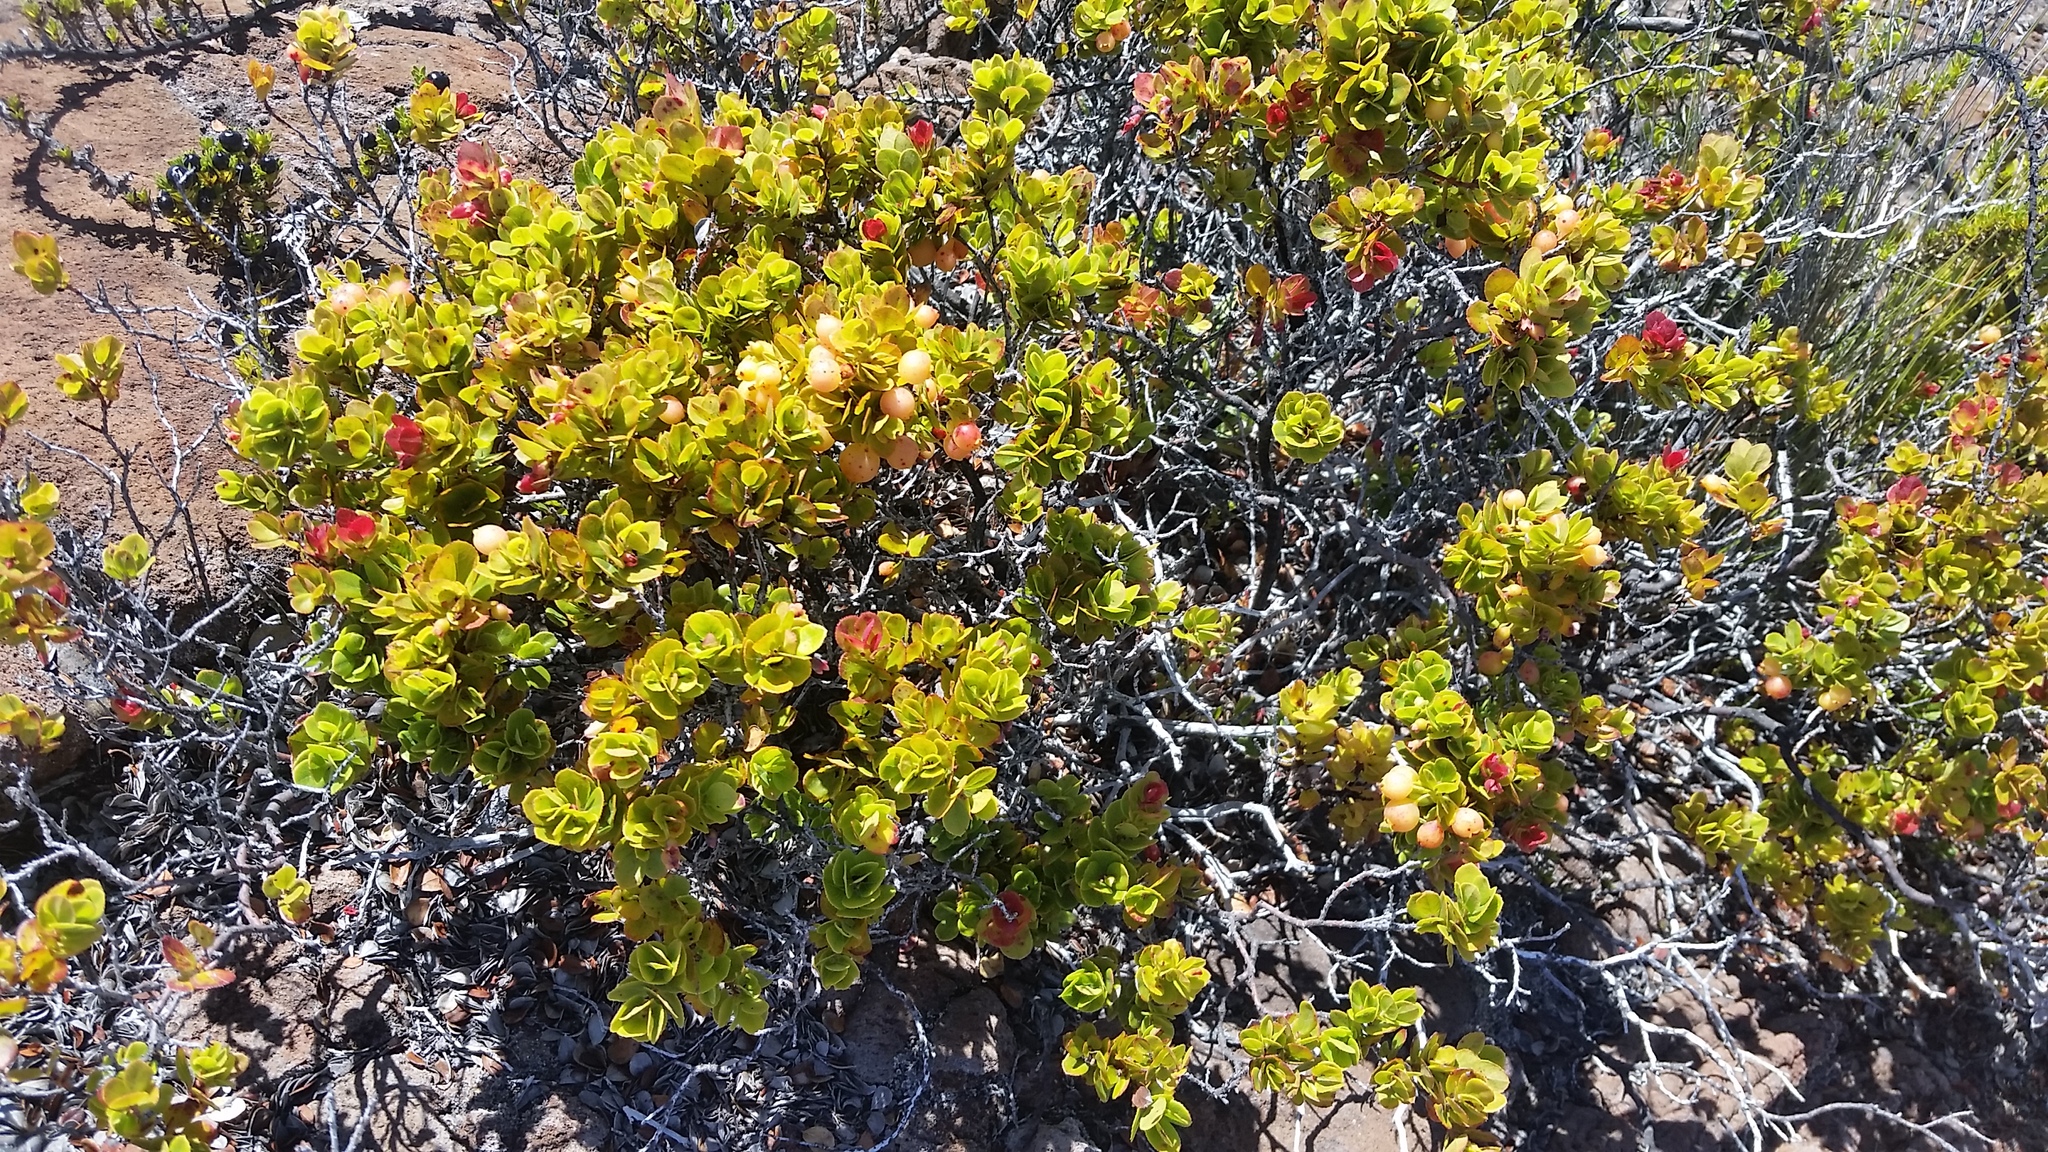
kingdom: Plantae
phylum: Tracheophyta
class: Magnoliopsida
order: Ericales
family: Ericaceae
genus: Vaccinium
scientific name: Vaccinium reticulatum
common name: Ohelo
